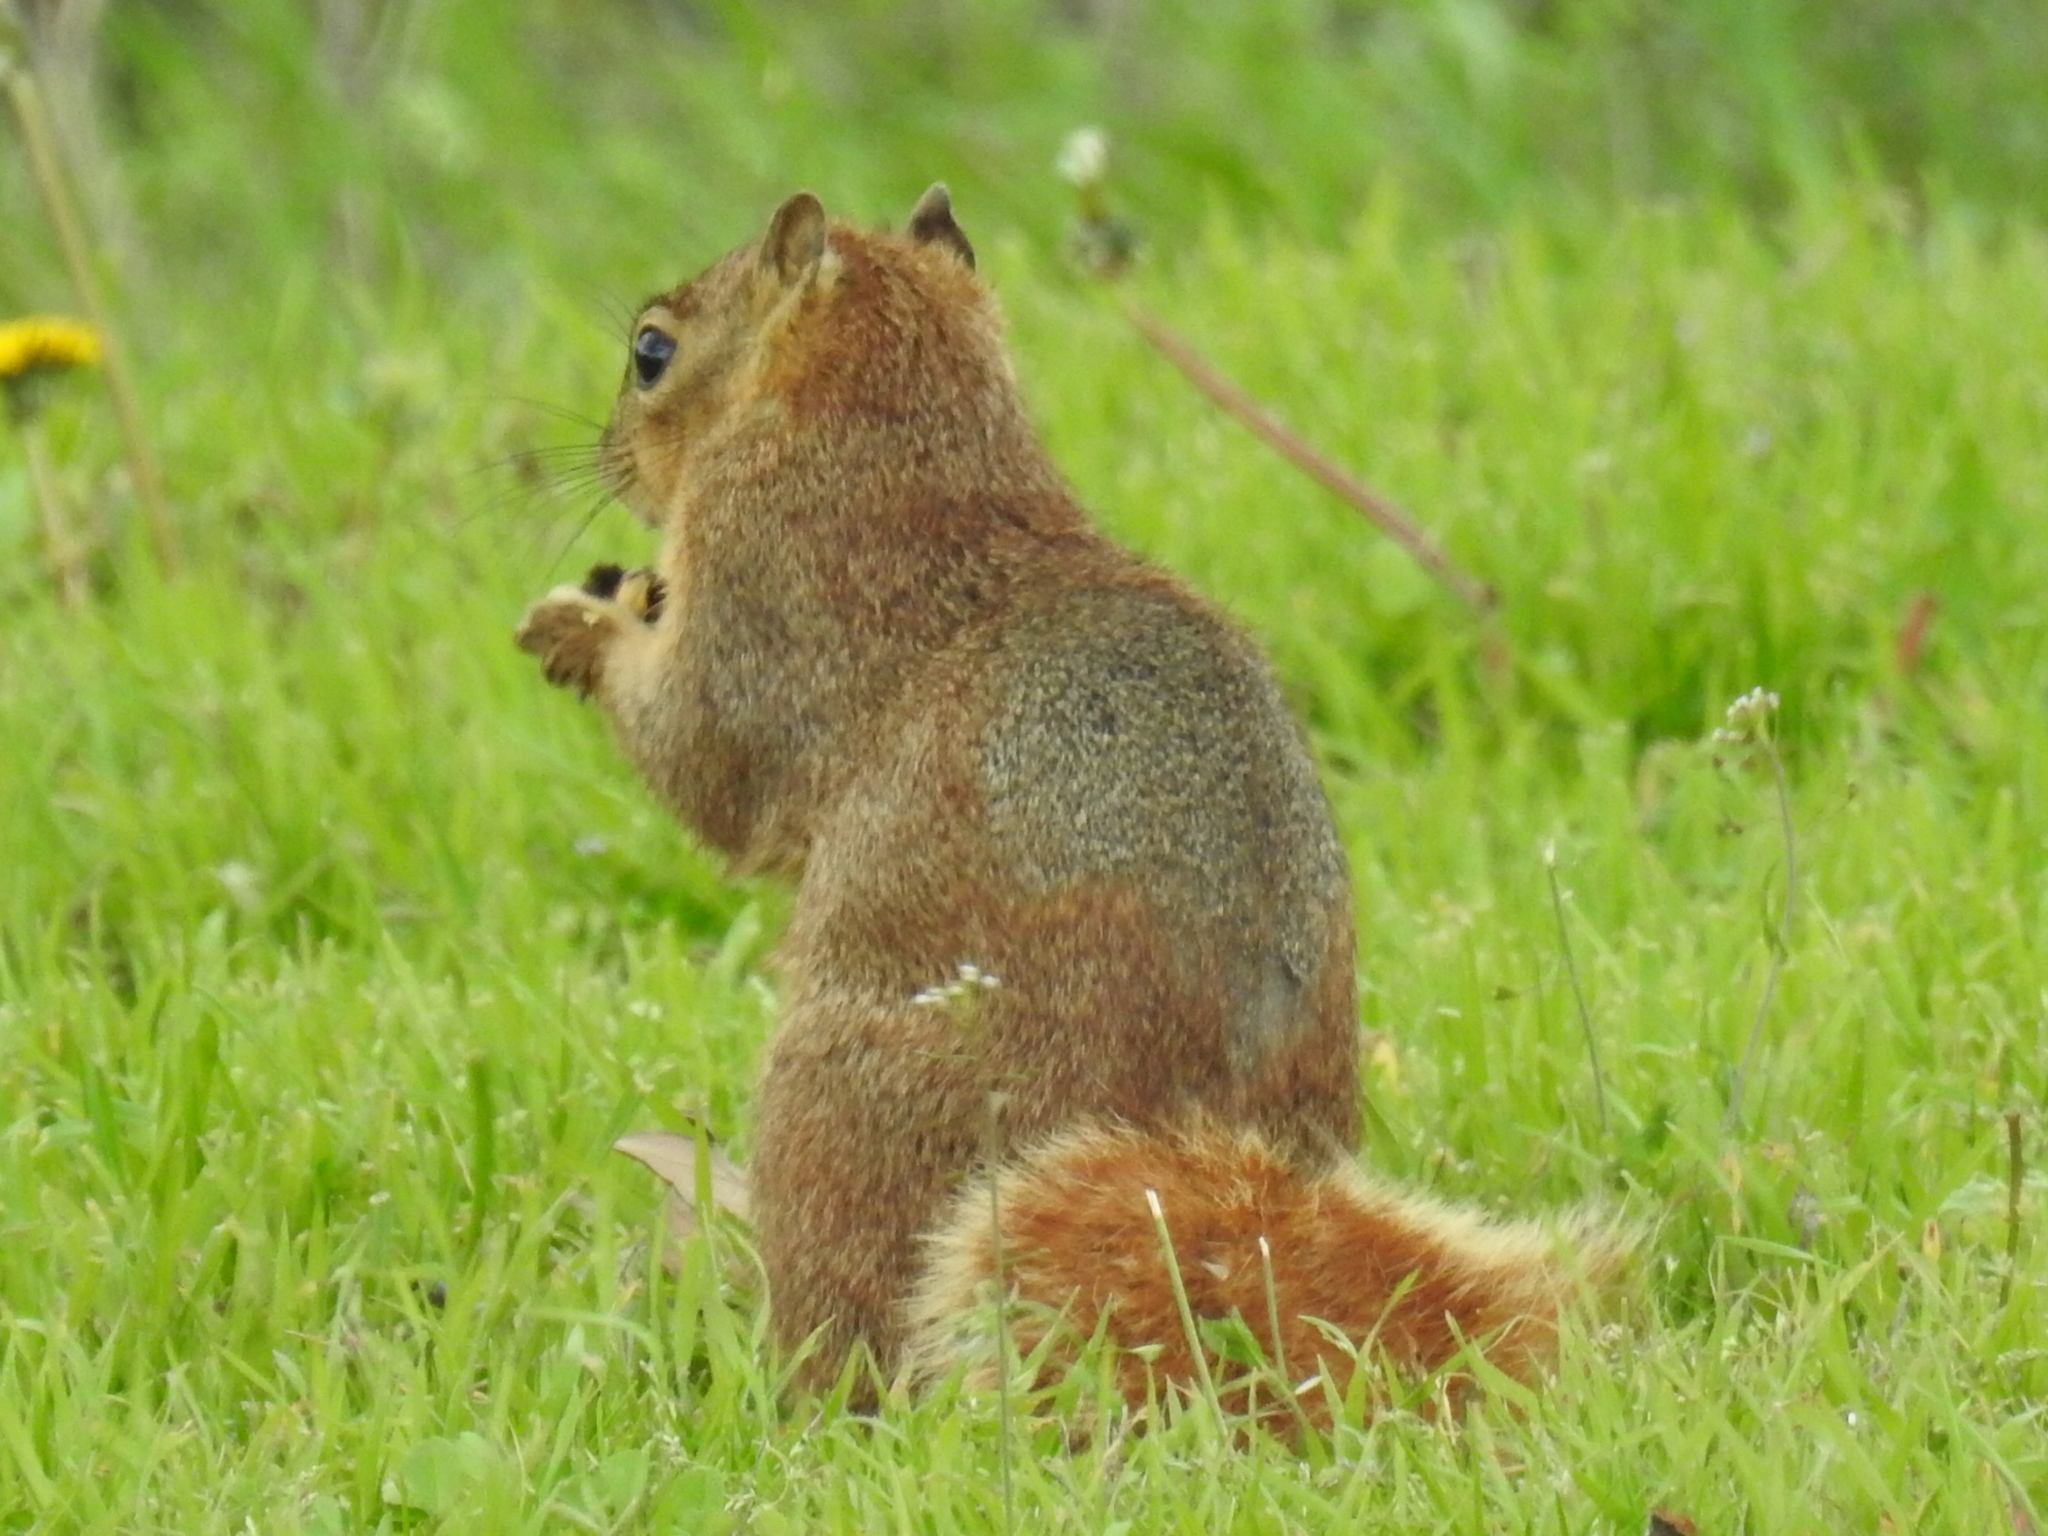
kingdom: Animalia
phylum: Chordata
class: Mammalia
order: Rodentia
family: Sciuridae
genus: Sciurus
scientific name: Sciurus niger
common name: Fox squirrel
